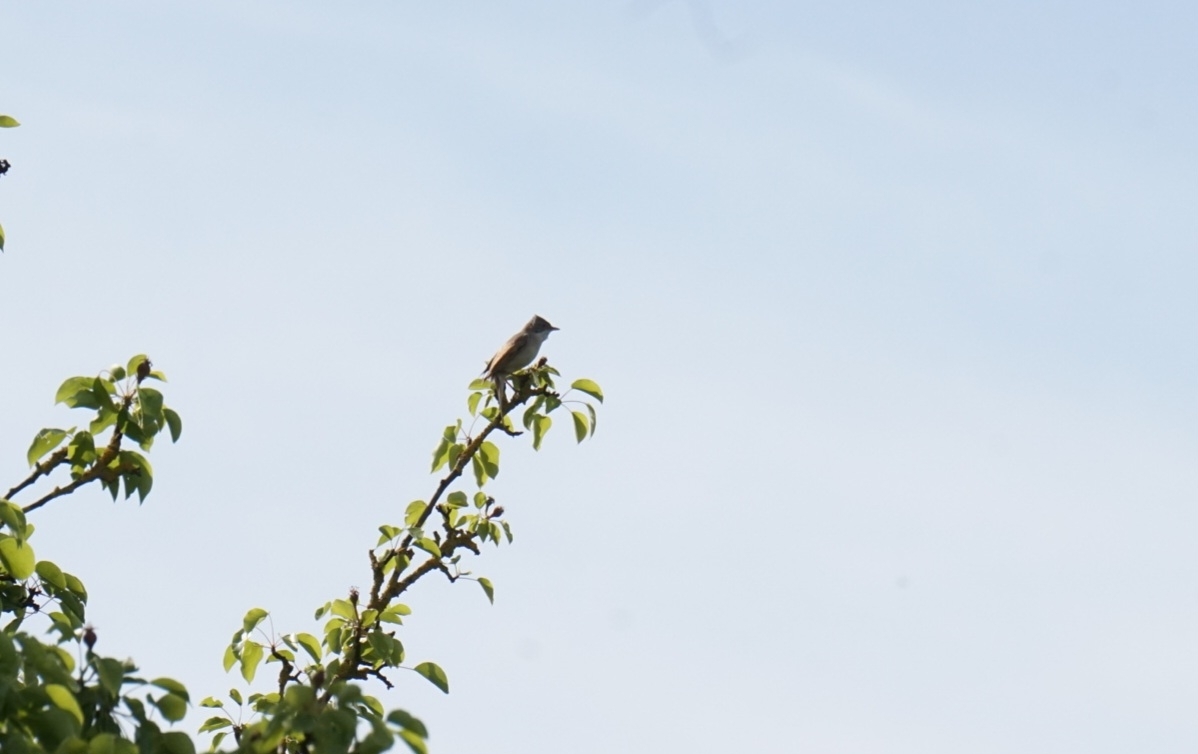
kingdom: Animalia
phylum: Chordata
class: Aves
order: Passeriformes
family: Sylviidae
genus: Sylvia
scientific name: Sylvia communis
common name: Common whitethroat
